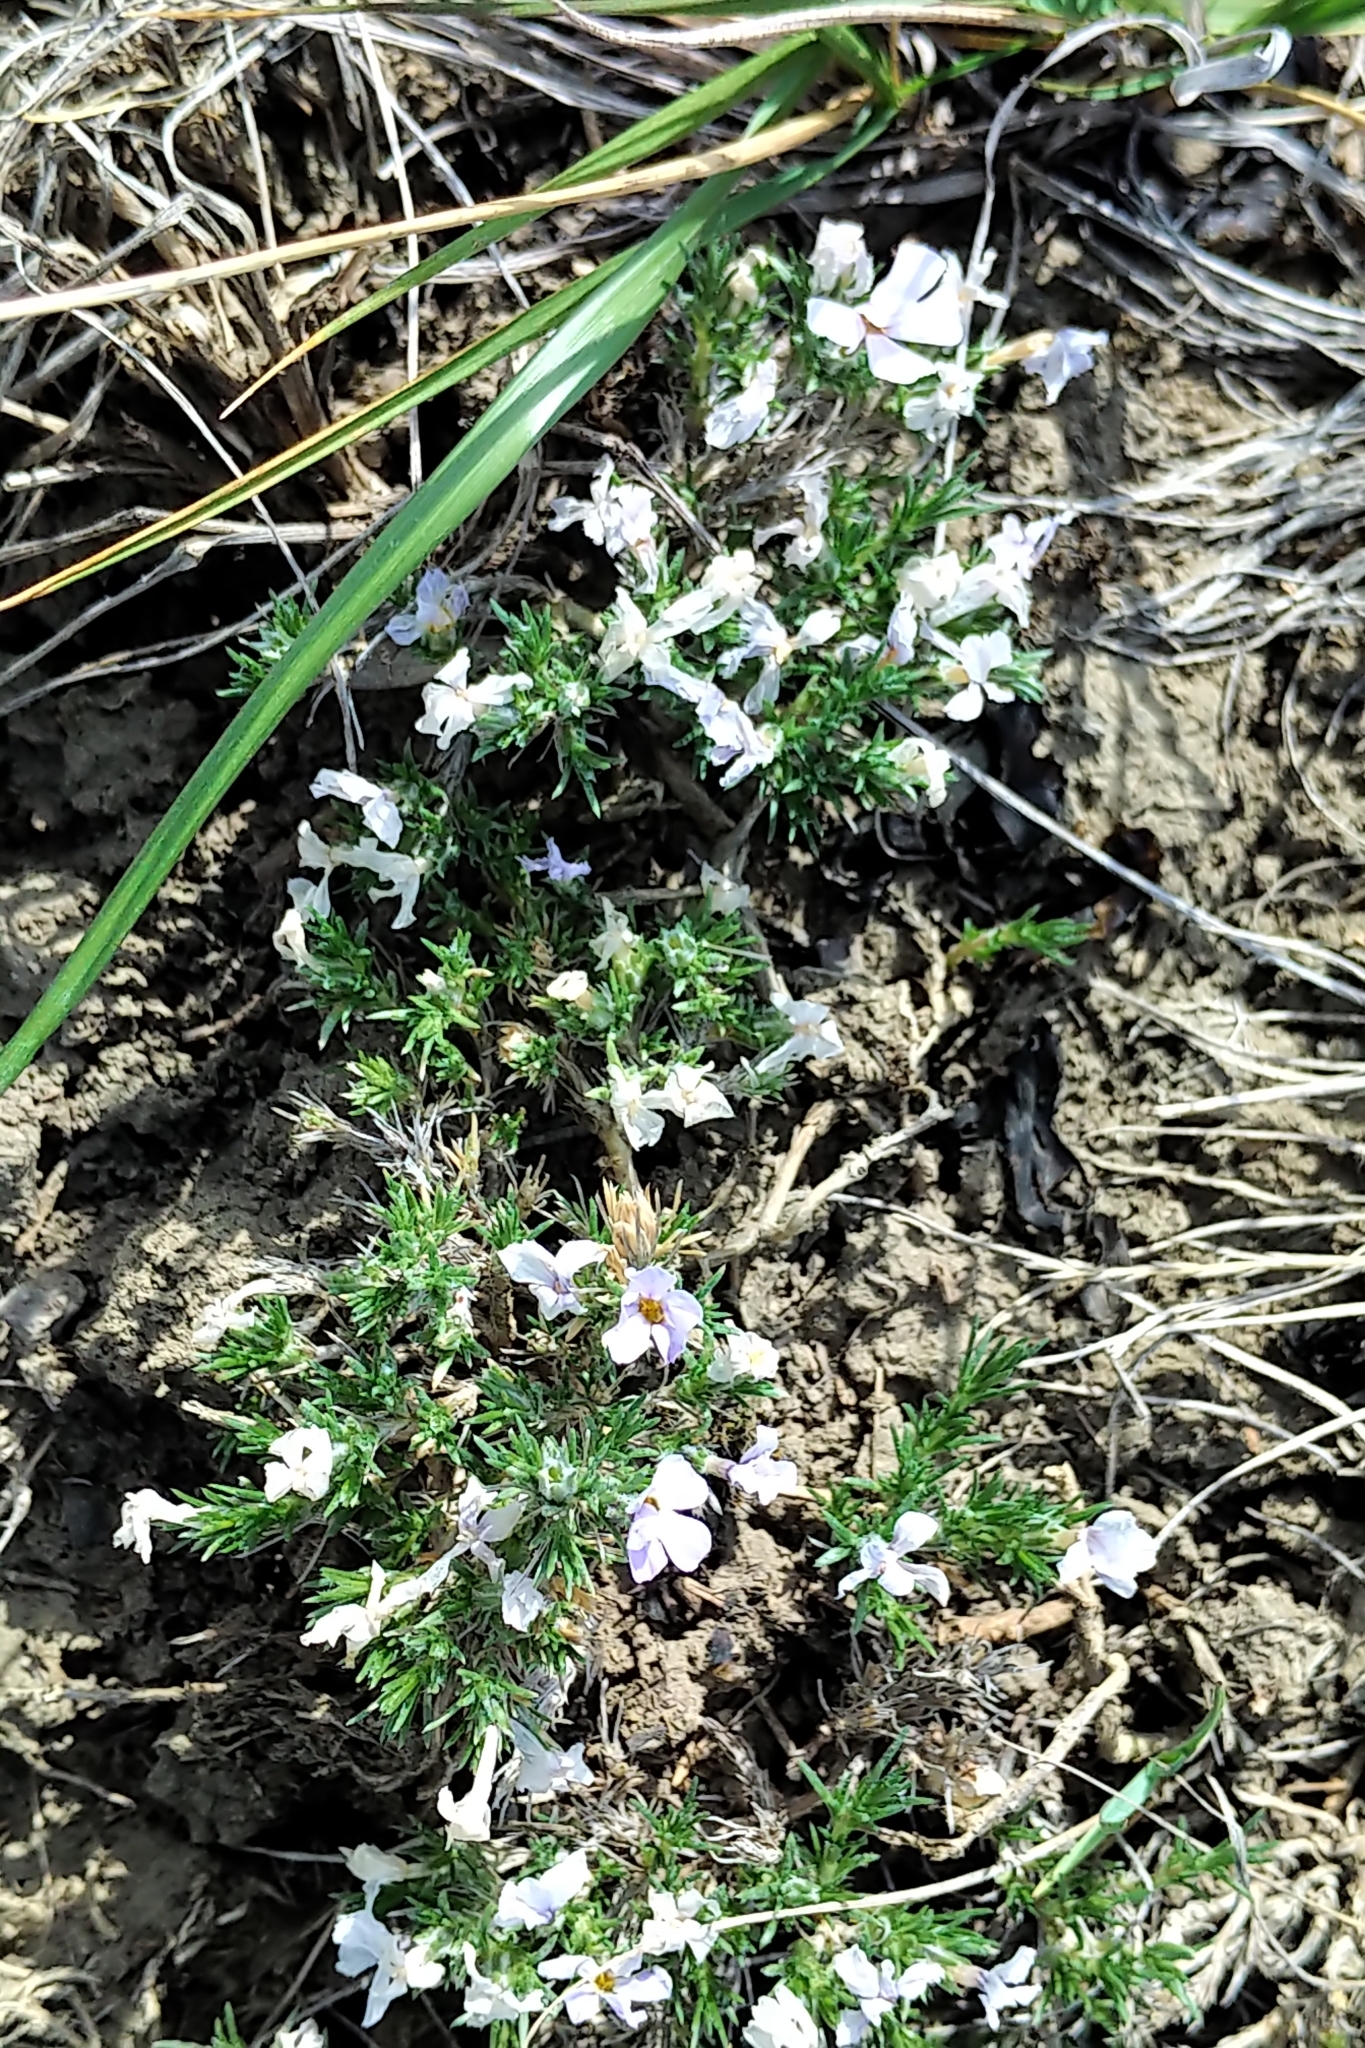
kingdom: Plantae
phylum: Tracheophyta
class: Magnoliopsida
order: Ericales
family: Polemoniaceae
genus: Phlox
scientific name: Phlox hoodii
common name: Moss phlox
